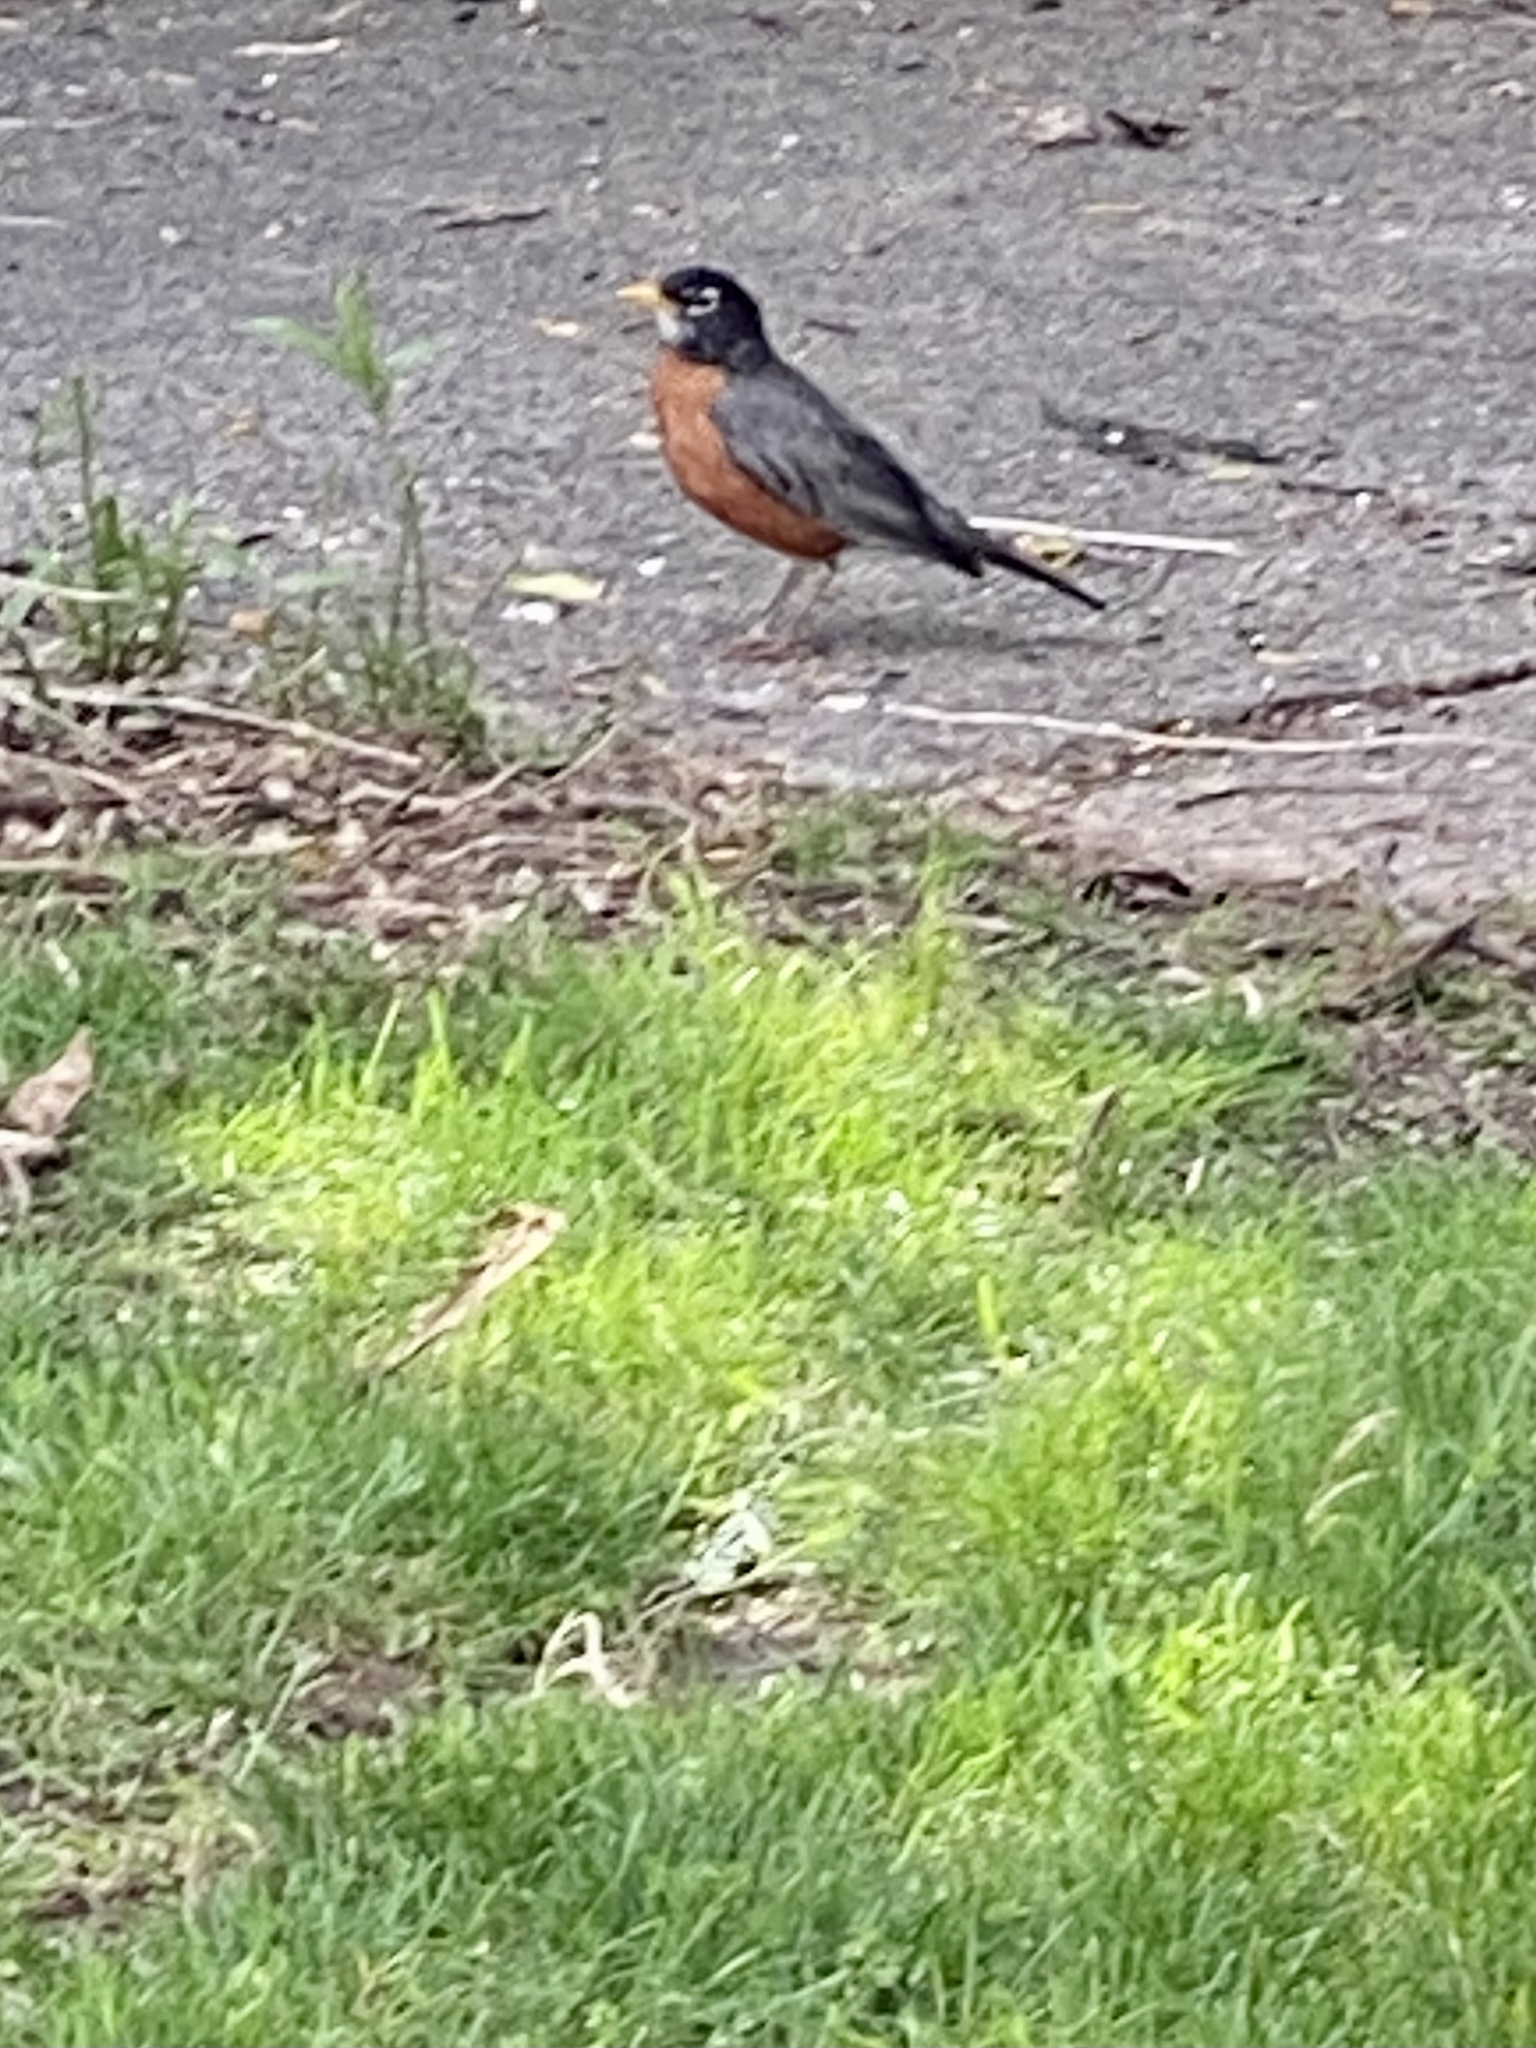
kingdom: Animalia
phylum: Chordata
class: Aves
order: Passeriformes
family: Turdidae
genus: Turdus
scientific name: Turdus migratorius
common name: American robin
